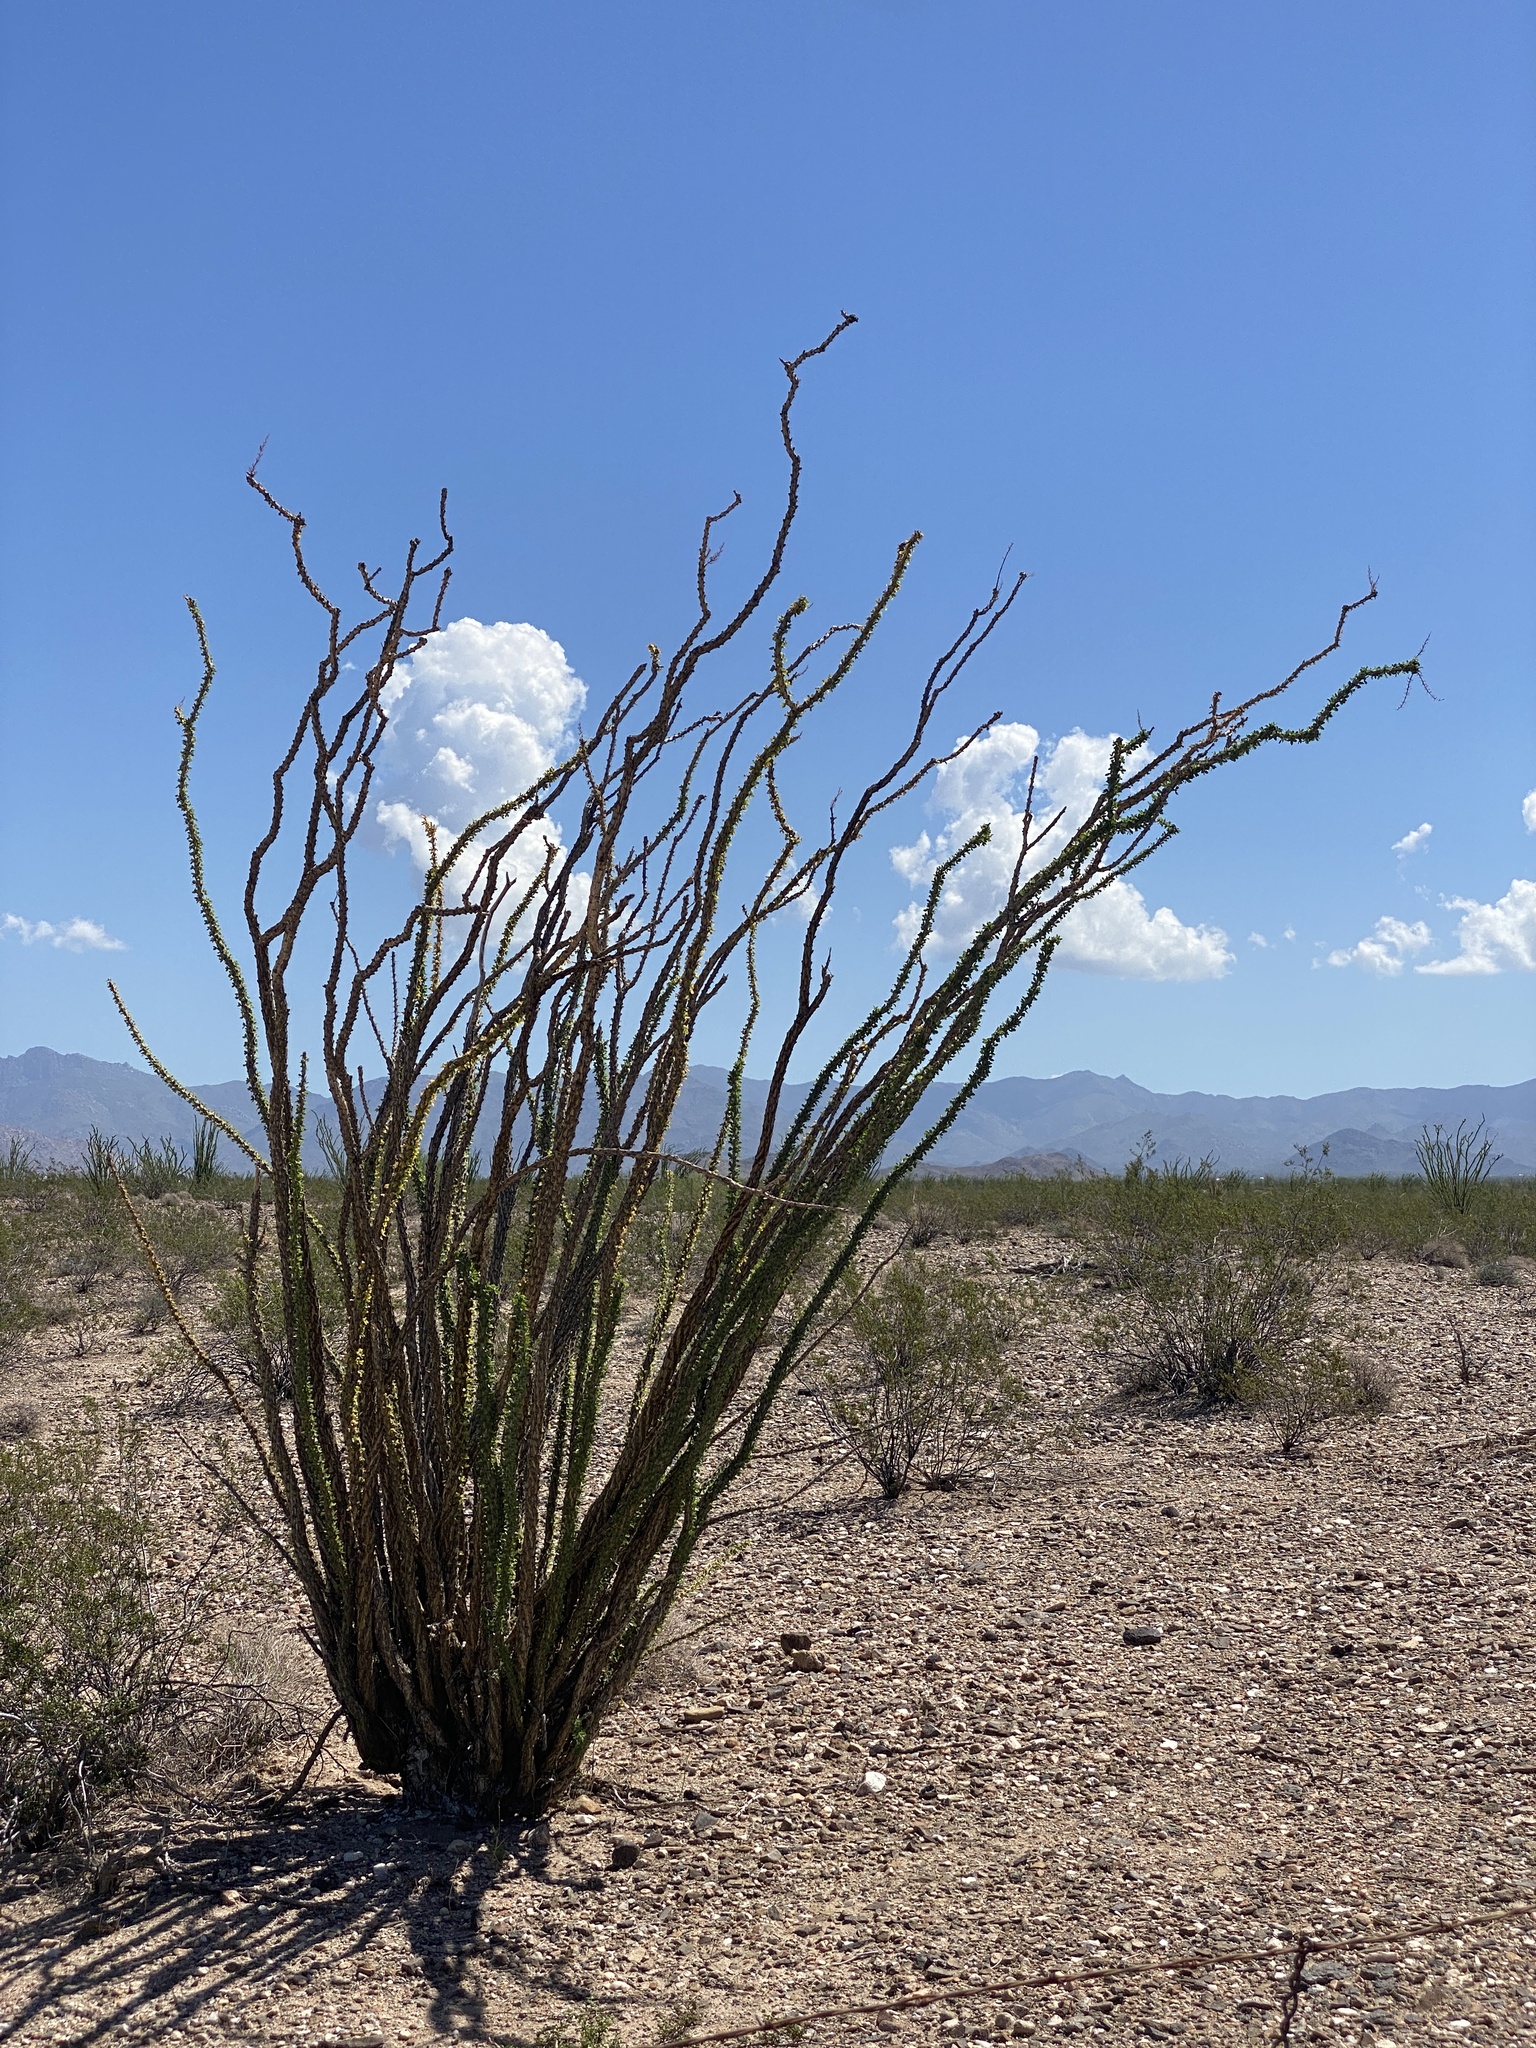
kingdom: Plantae
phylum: Tracheophyta
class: Magnoliopsida
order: Ericales
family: Fouquieriaceae
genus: Fouquieria
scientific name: Fouquieria splendens
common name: Vine-cactus
